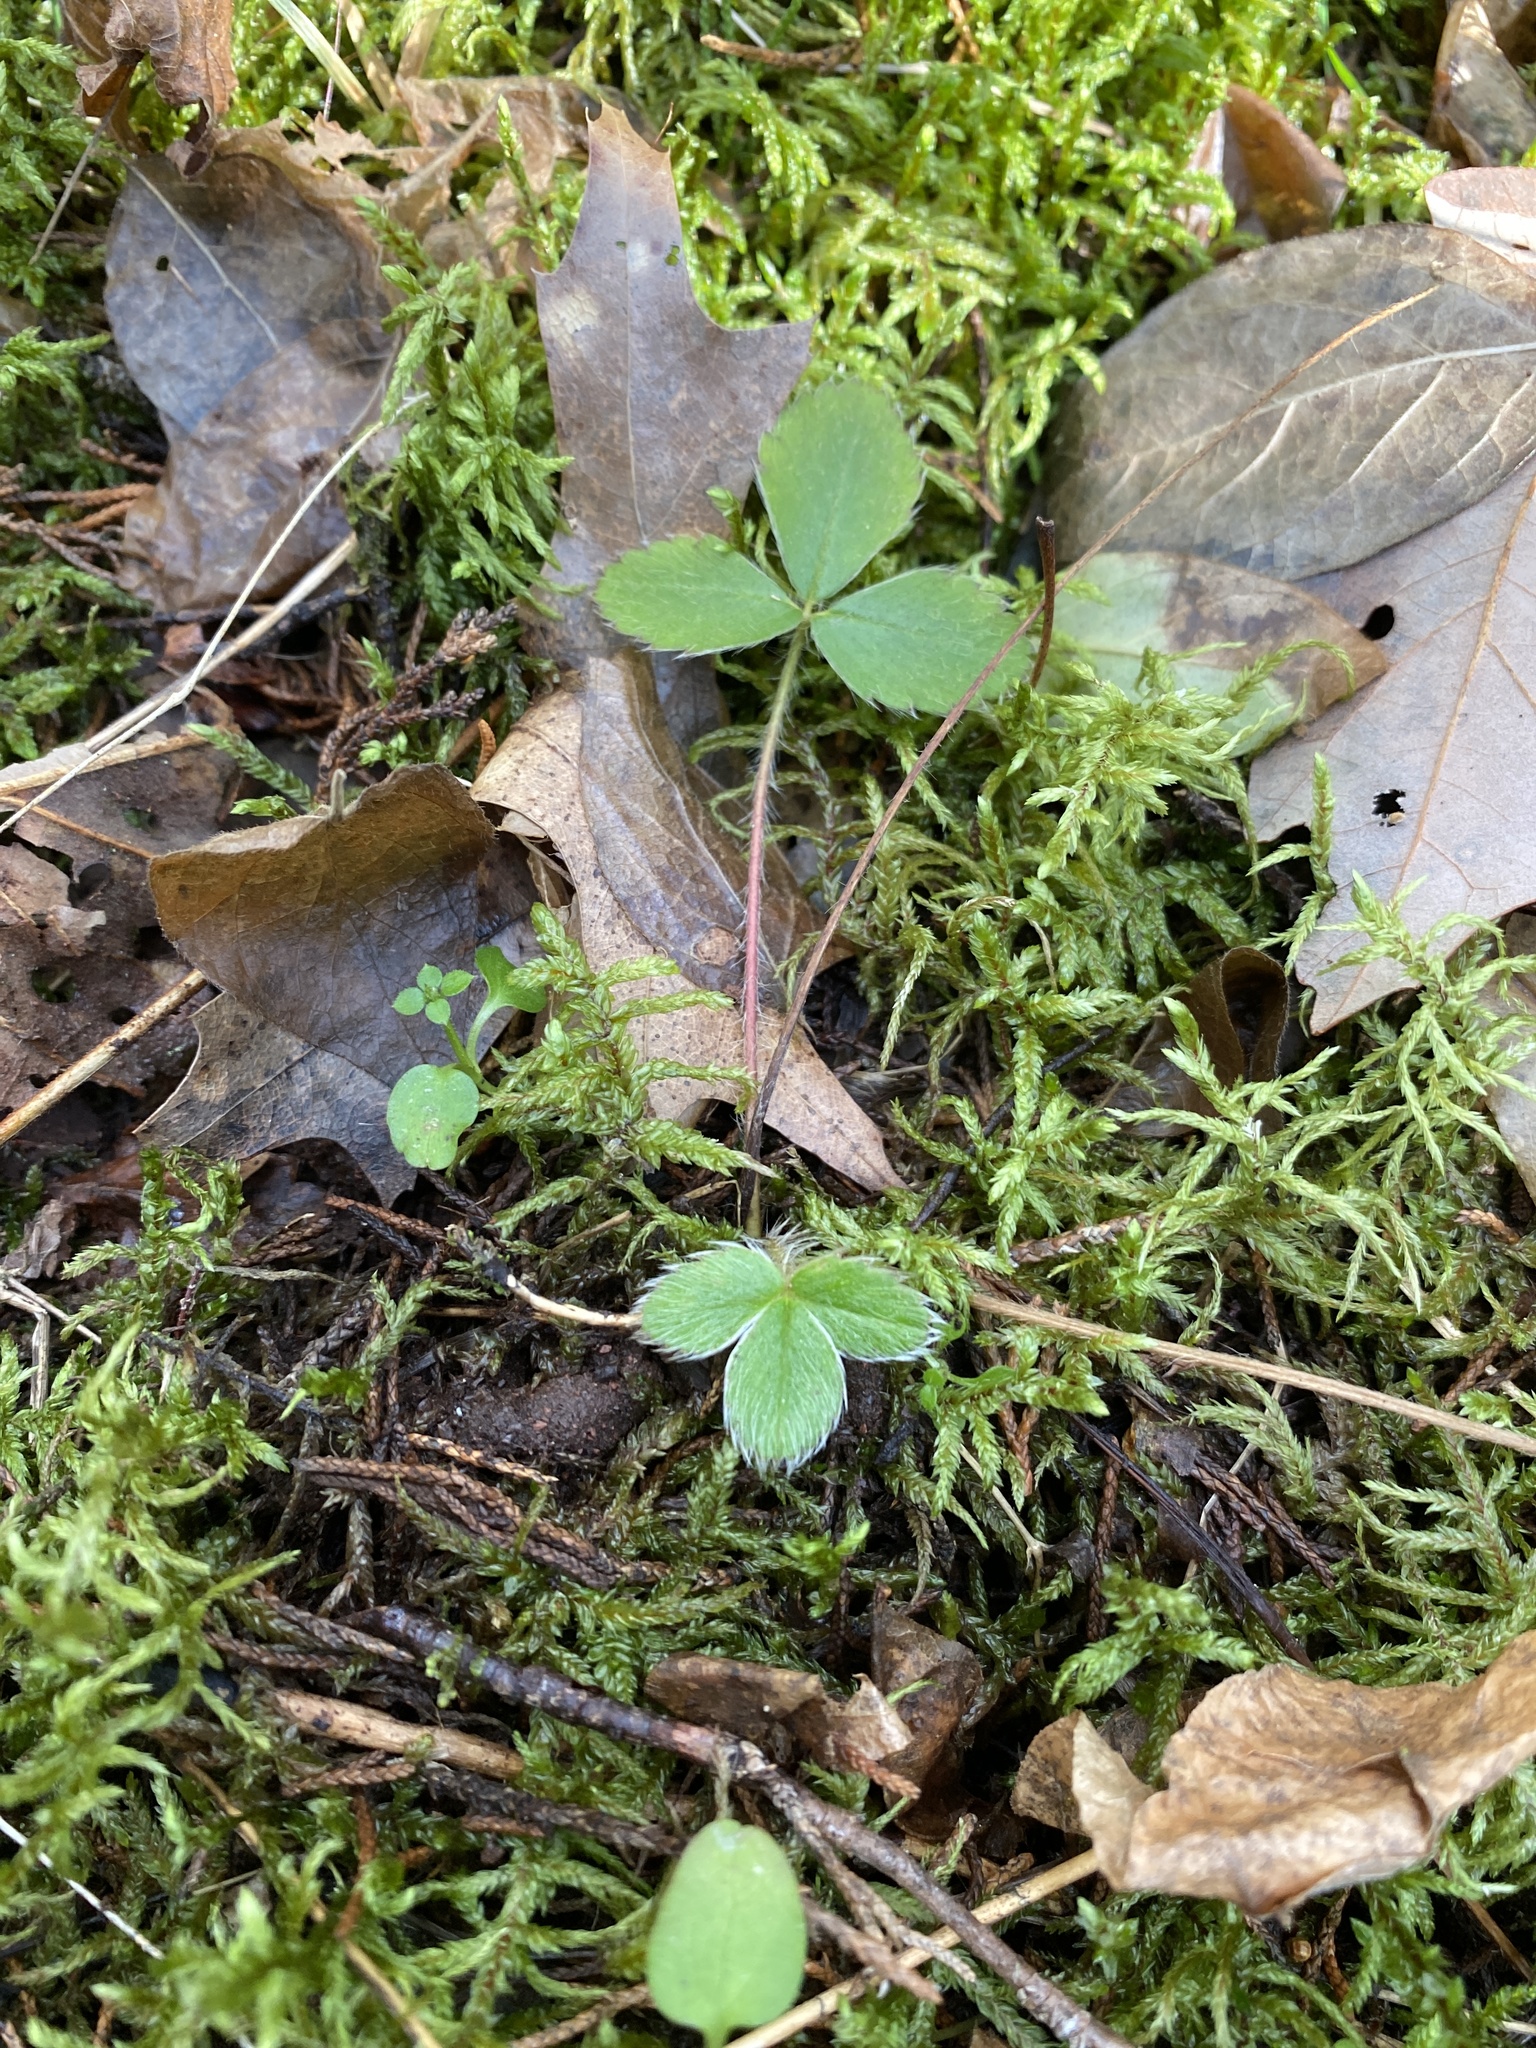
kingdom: Plantae
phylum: Tracheophyta
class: Magnoliopsida
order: Rosales
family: Rosaceae
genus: Fragaria
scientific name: Fragaria virginiana
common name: Thickleaved wild strawberry
